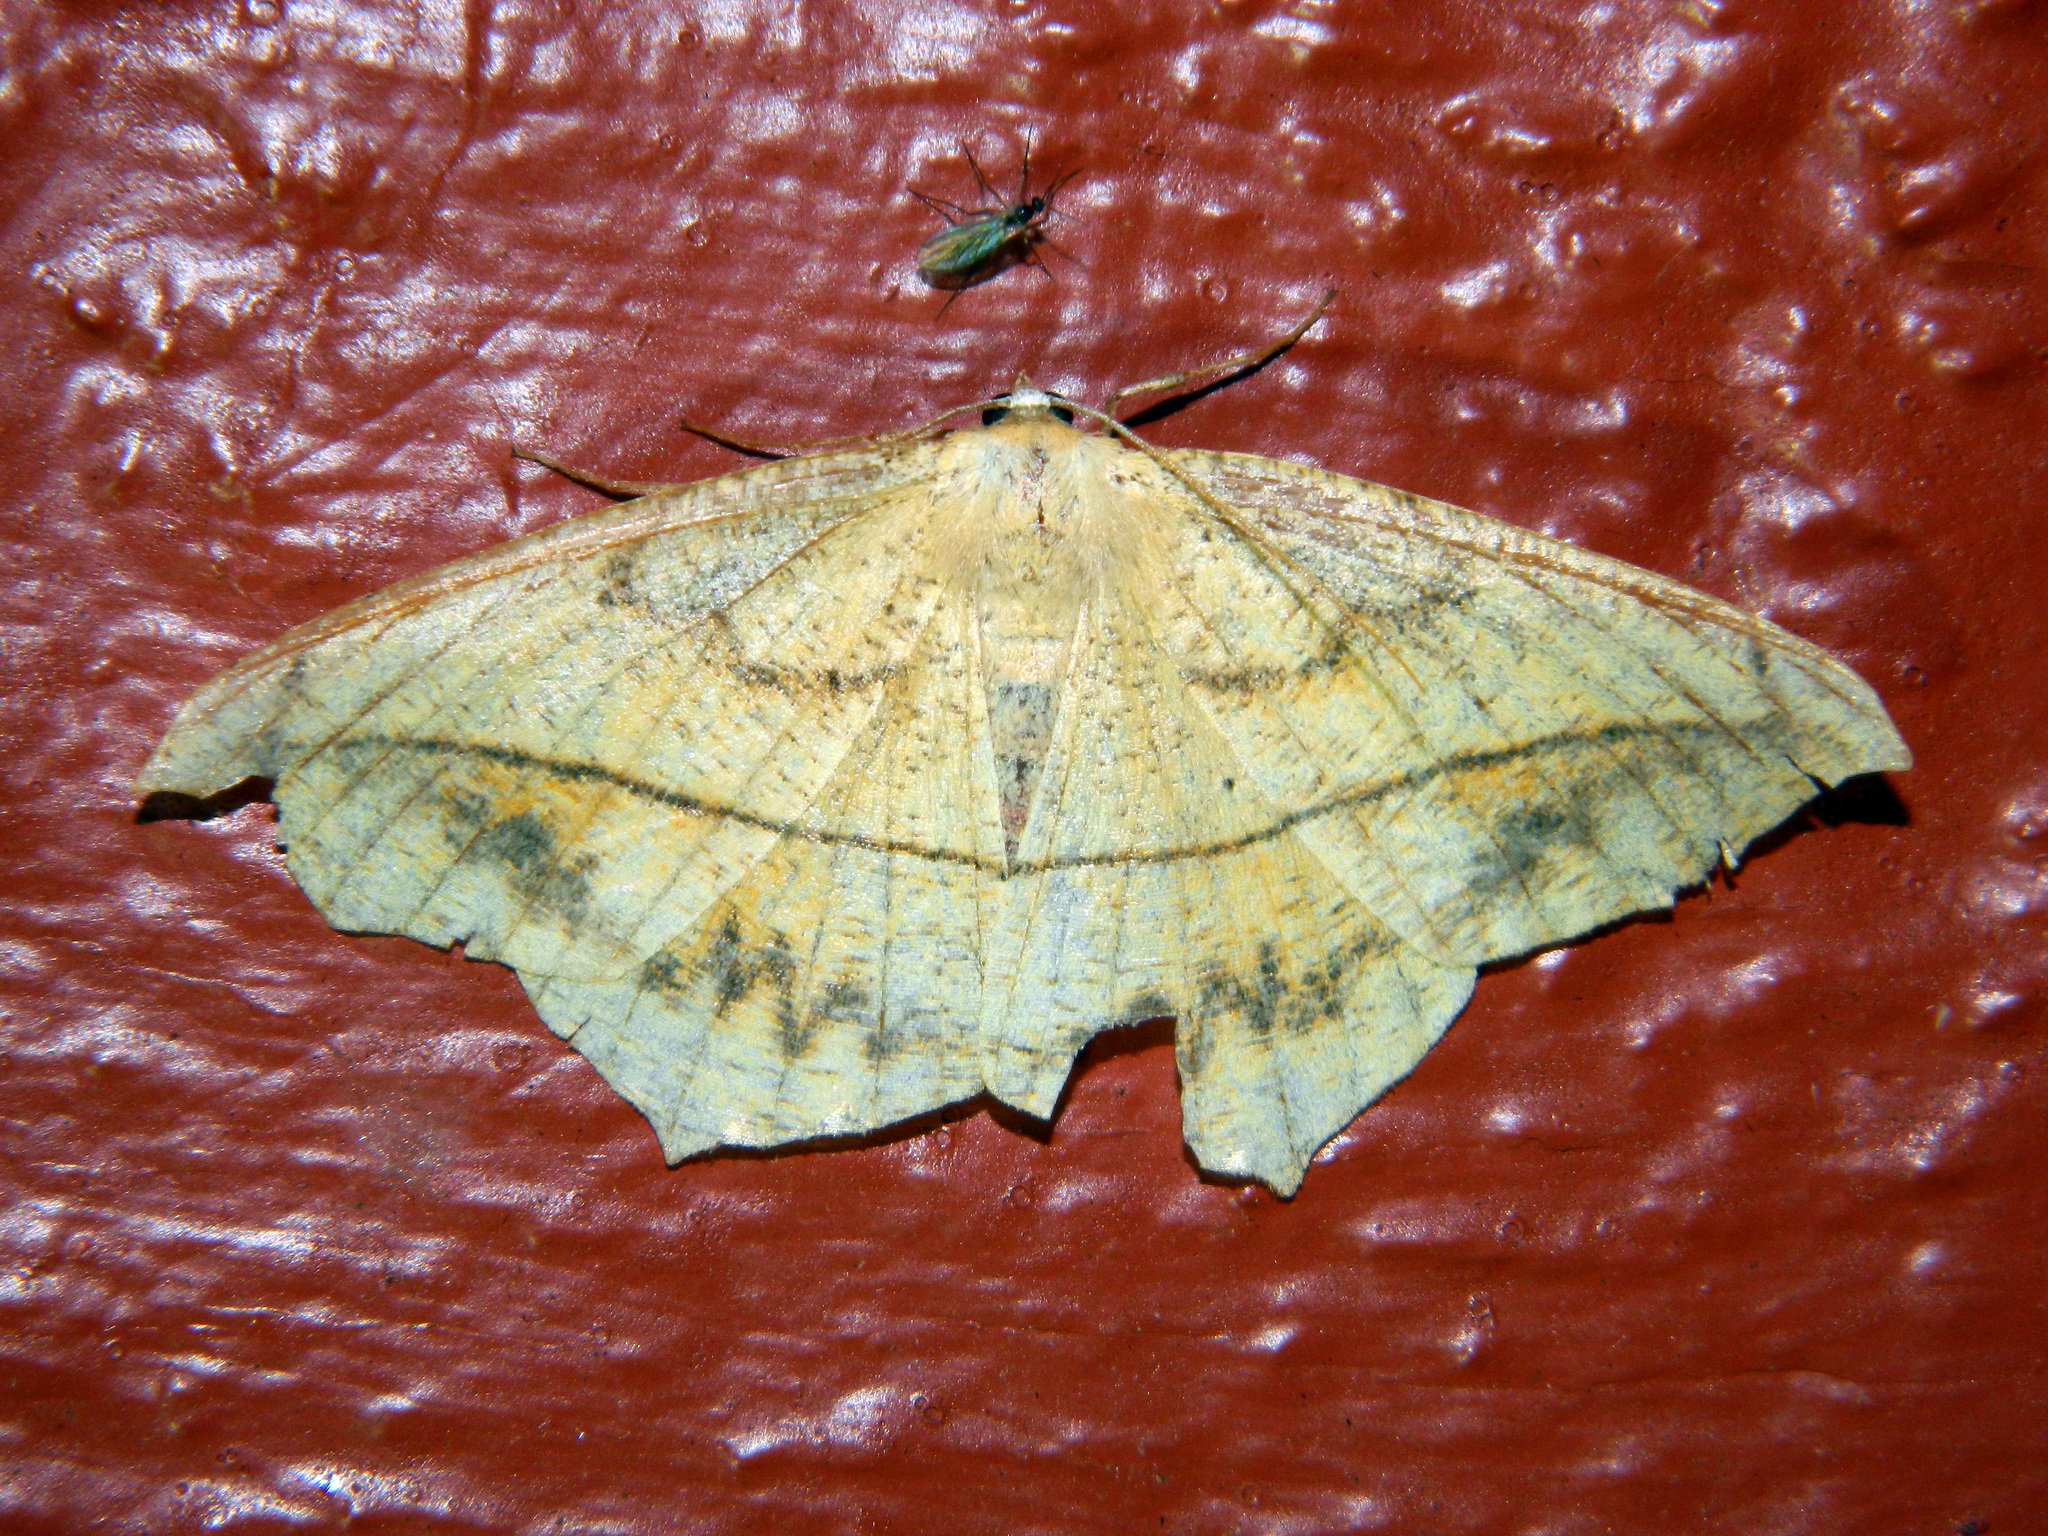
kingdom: Animalia
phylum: Arthropoda
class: Insecta
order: Lepidoptera
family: Geometridae
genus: Prochoerodes
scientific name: Prochoerodes lineola
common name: Large maple spanworm
